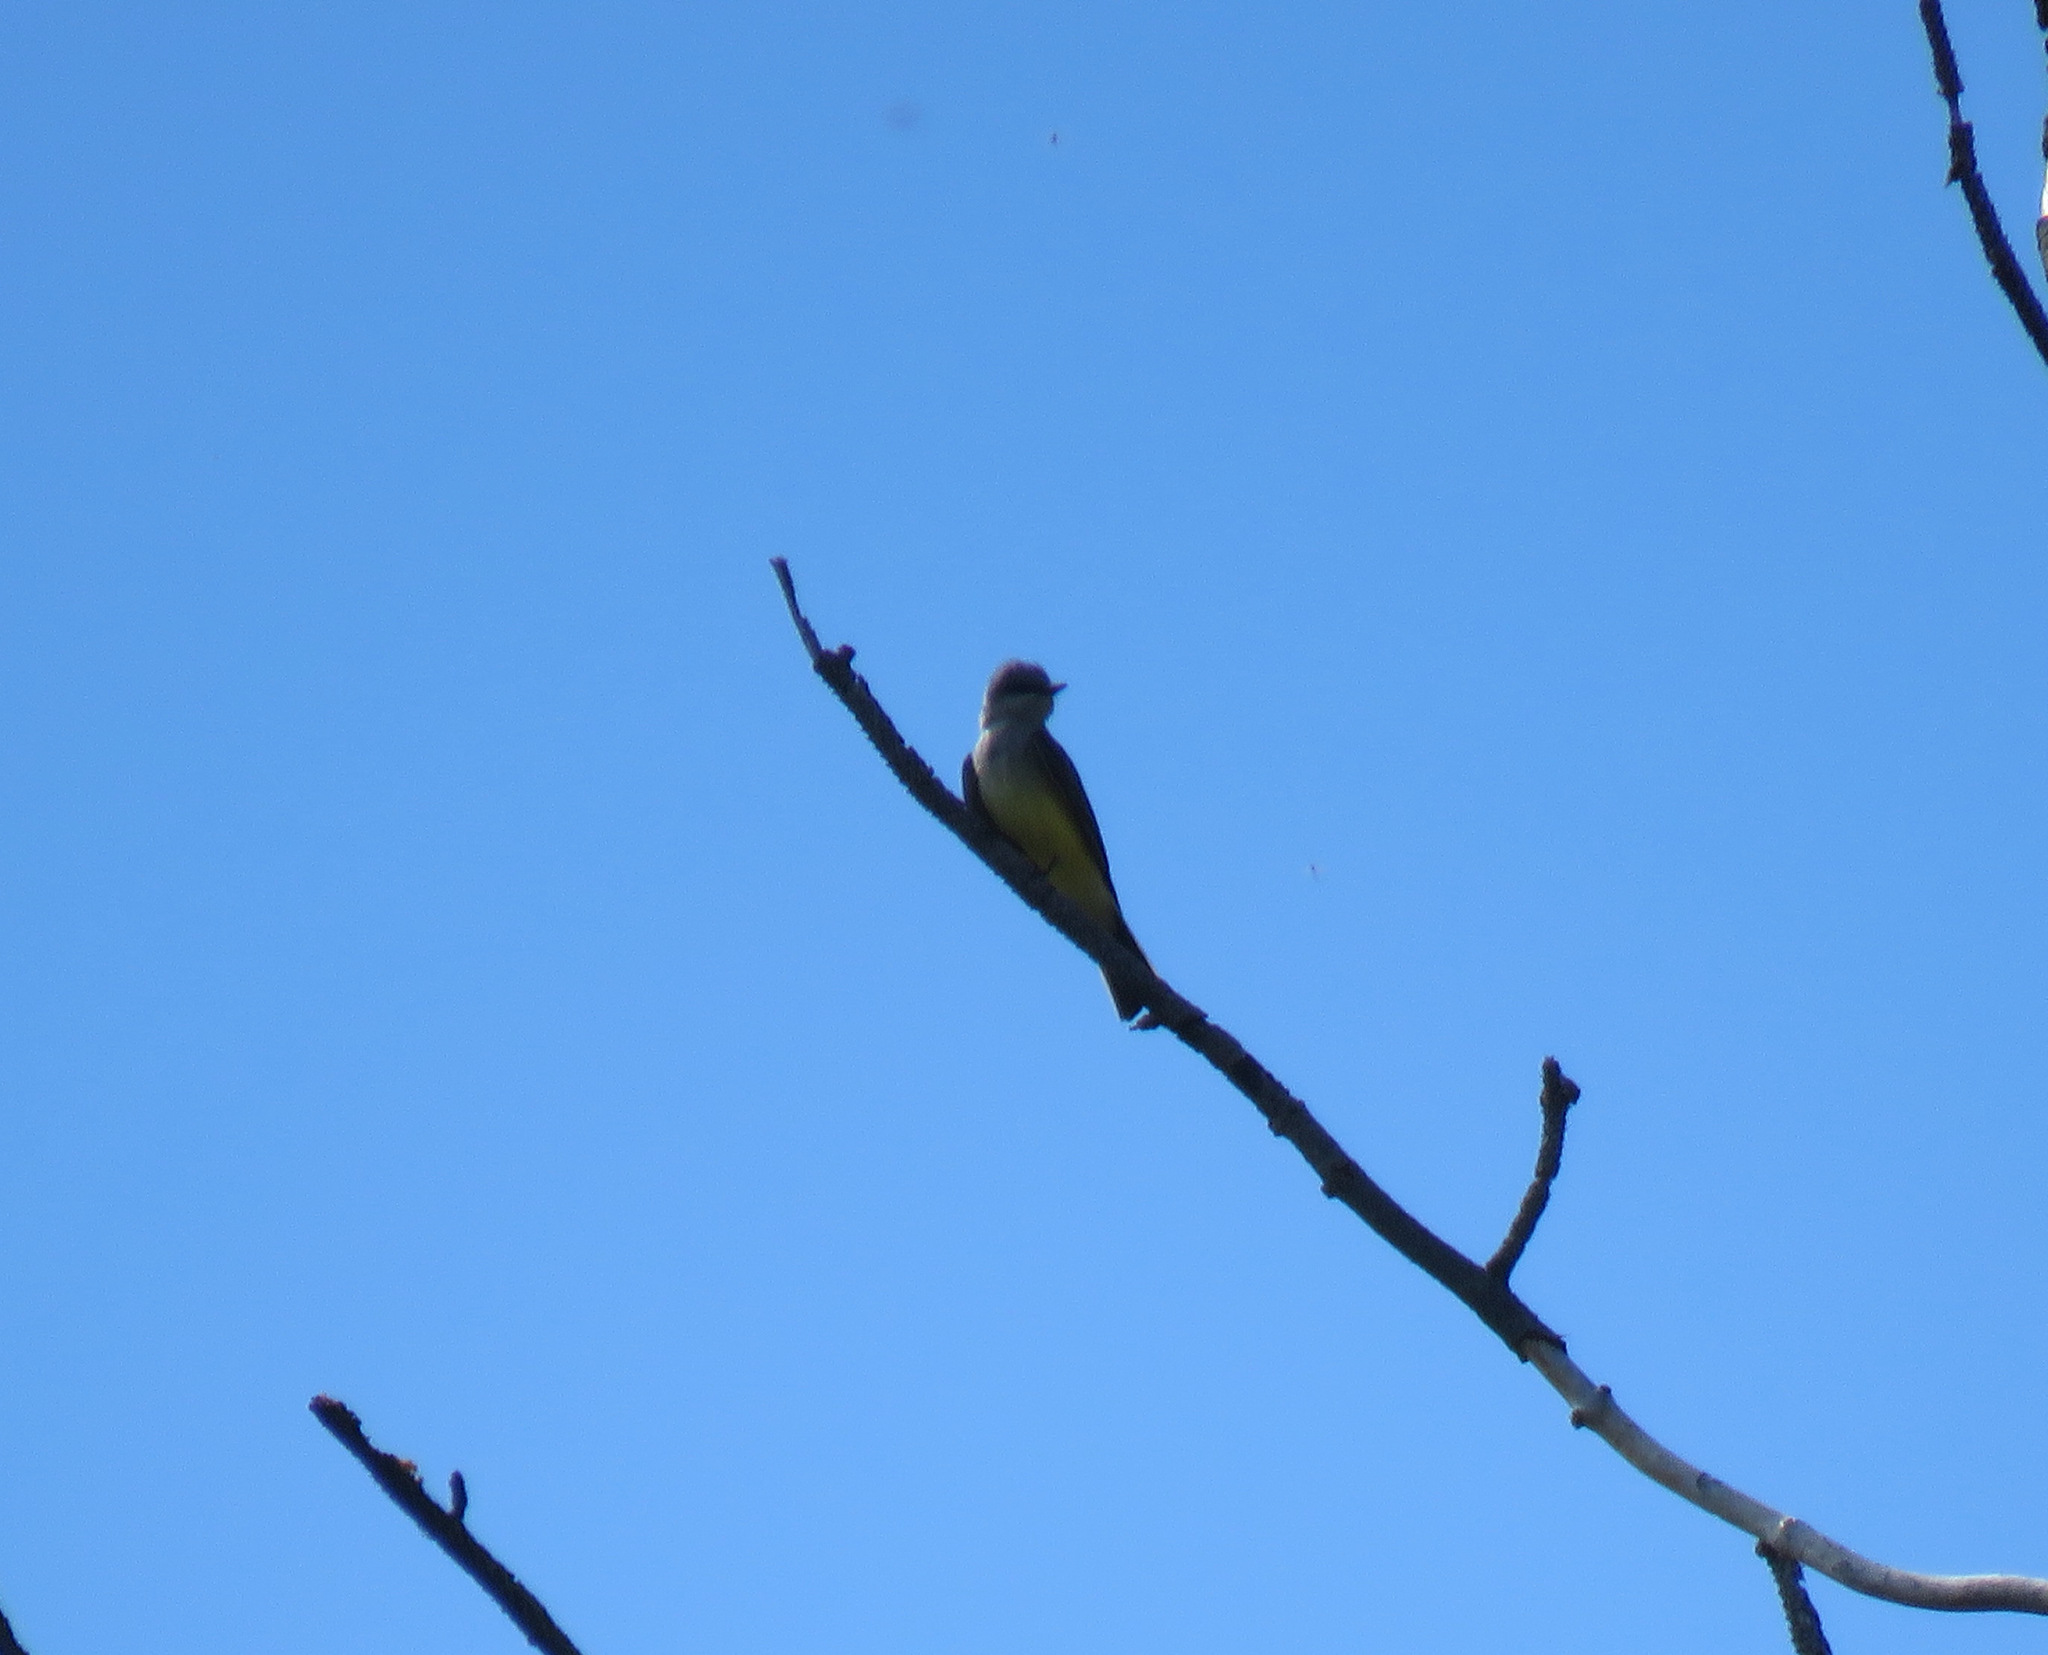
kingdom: Animalia
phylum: Chordata
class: Aves
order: Passeriformes
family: Tyrannidae
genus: Tyrannus
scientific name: Tyrannus verticalis
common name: Western kingbird
